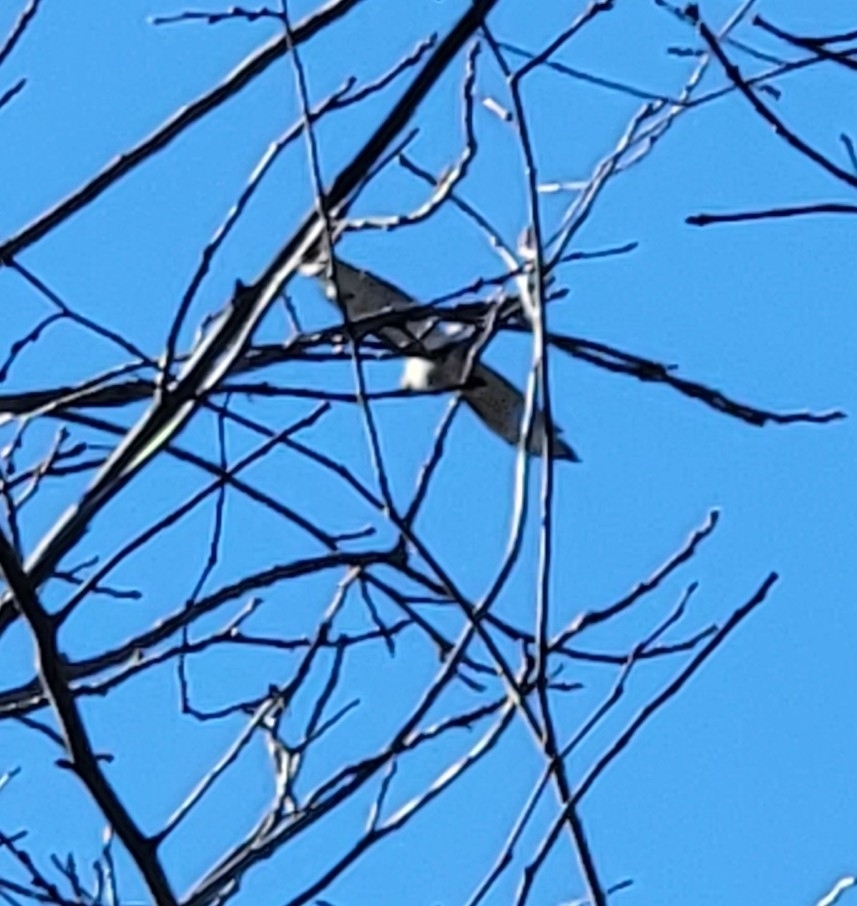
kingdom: Animalia
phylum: Chordata
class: Aves
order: Accipitriformes
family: Accipitridae
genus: Buteo
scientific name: Buteo jamaicensis
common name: Red-tailed hawk
